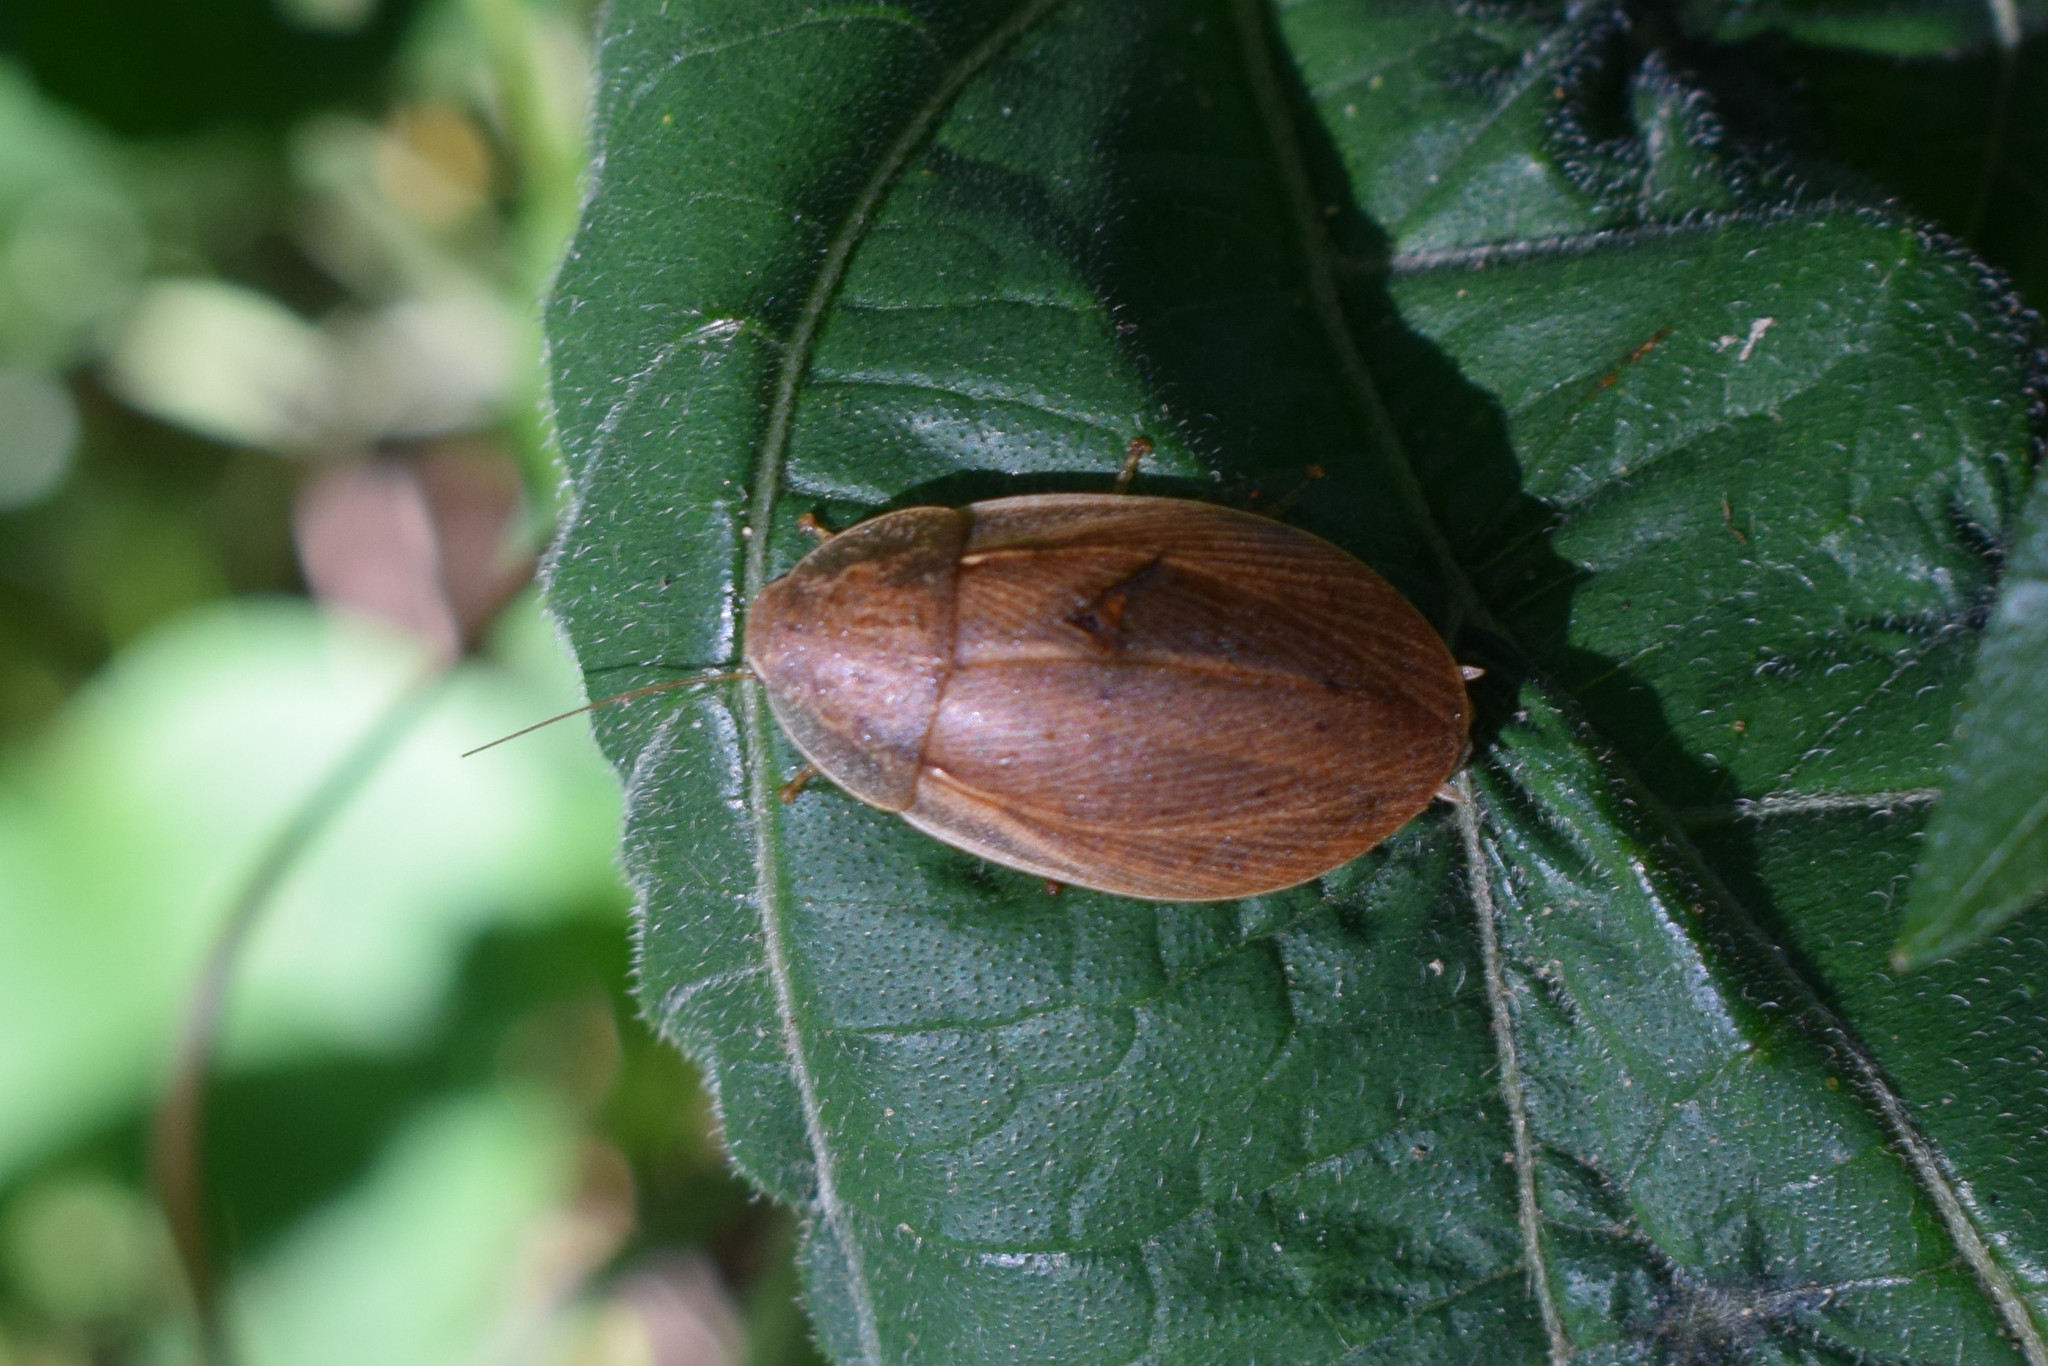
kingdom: Animalia
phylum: Arthropoda
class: Insecta
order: Blattodea
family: Blaberidae
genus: Phlebonotus
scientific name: Phlebonotus pallens
